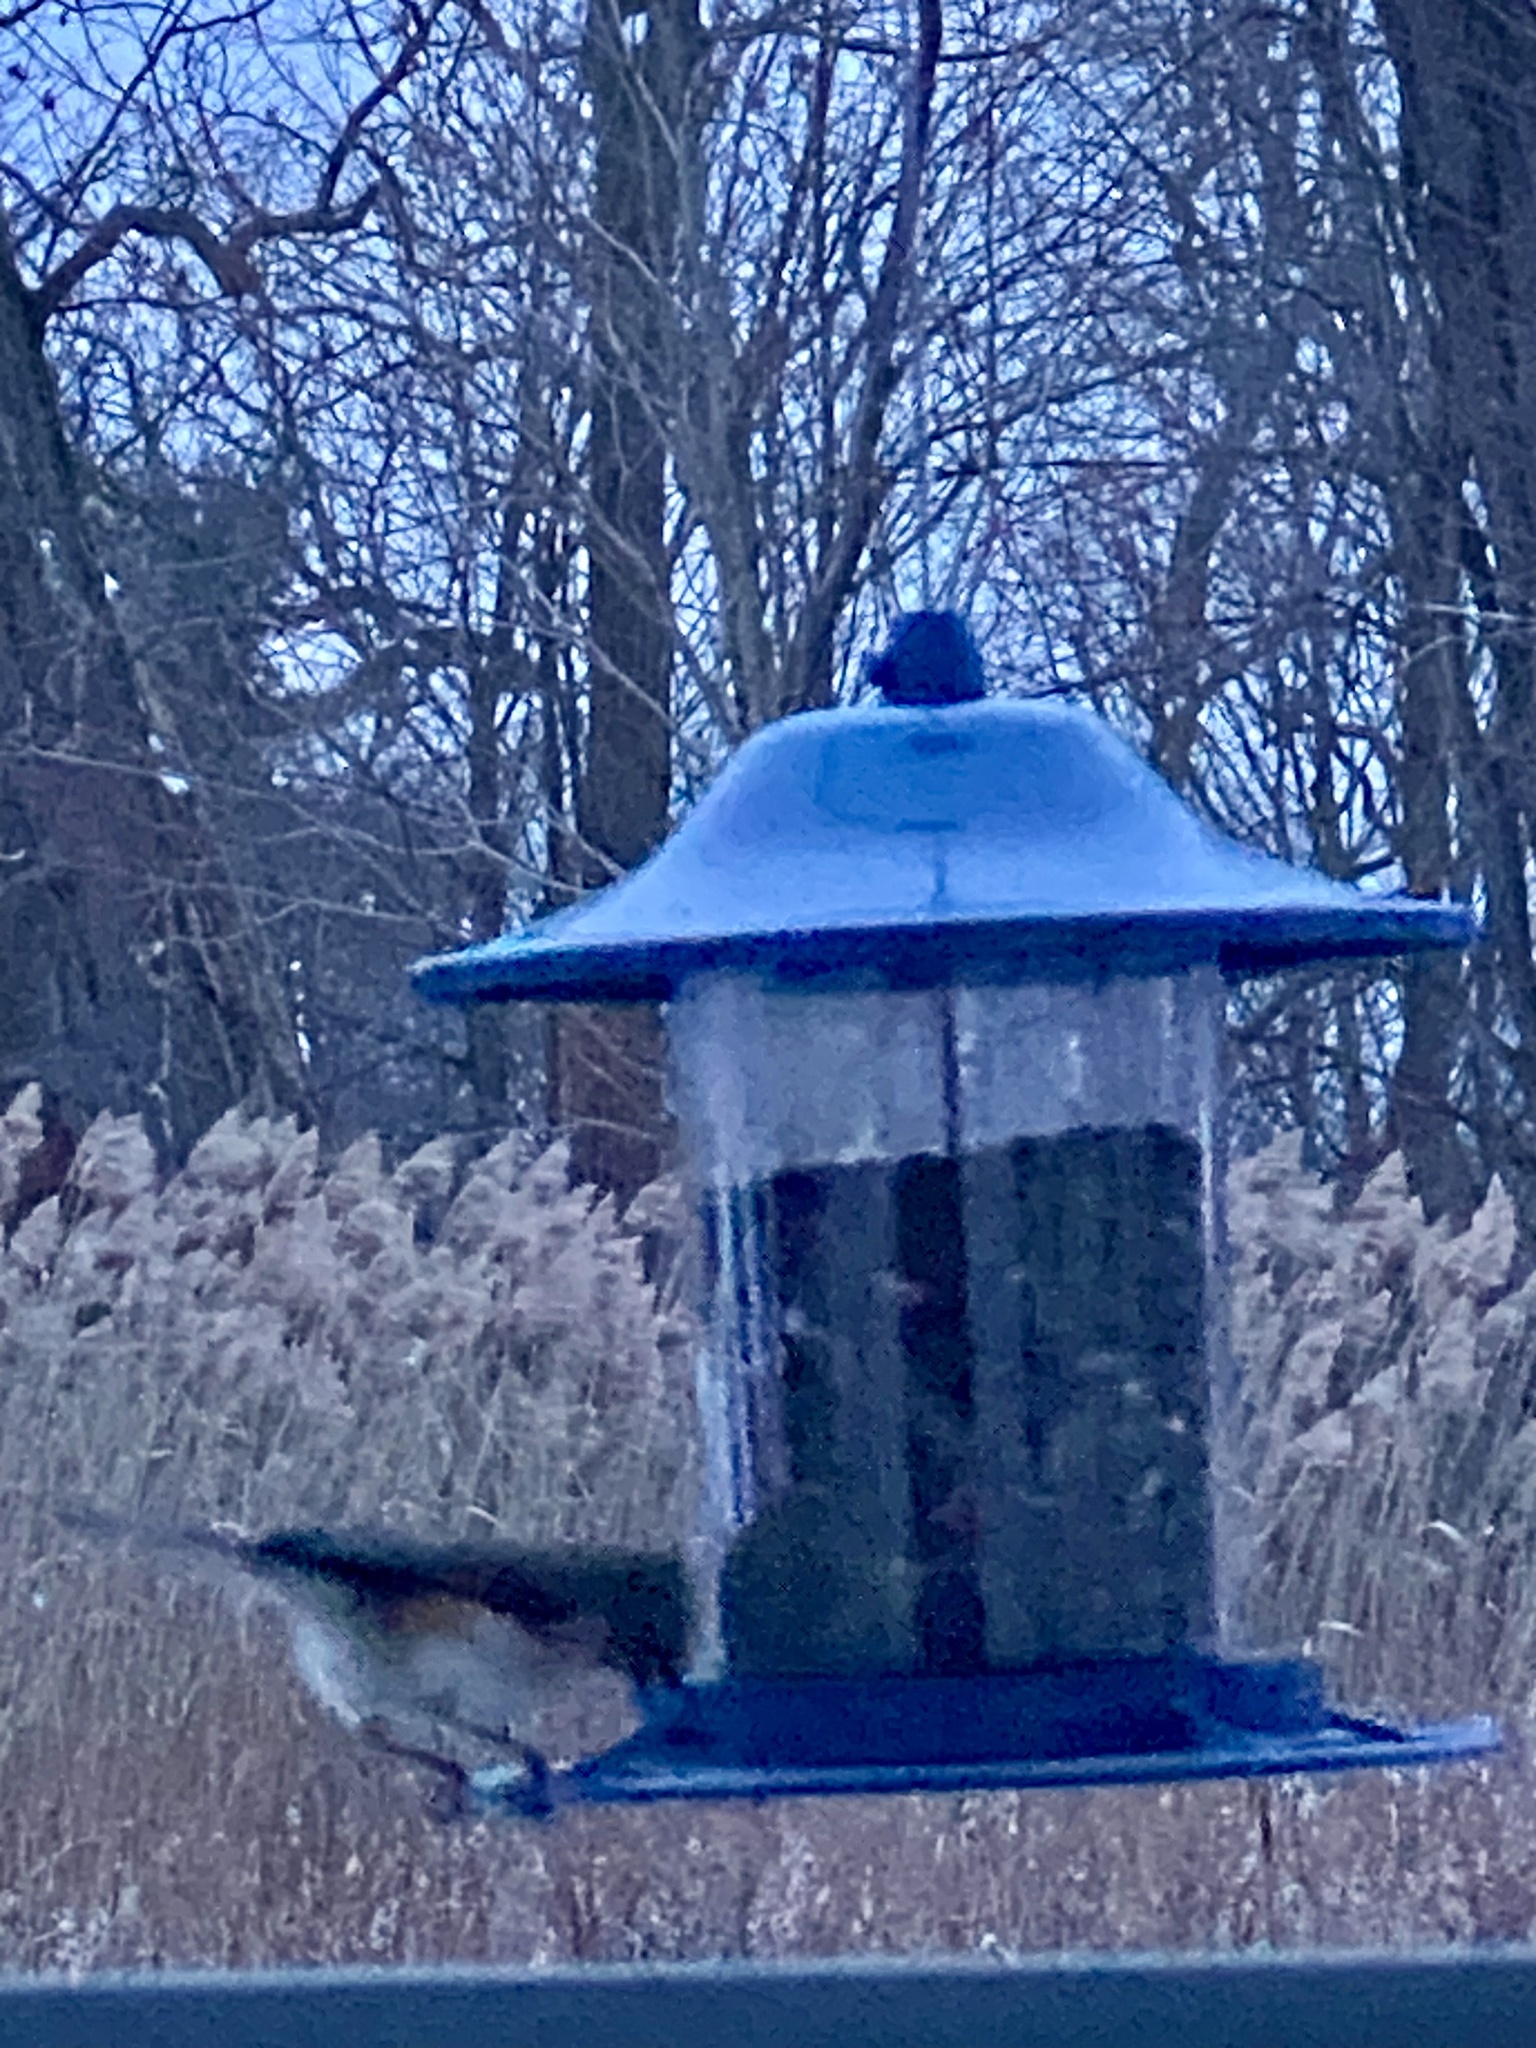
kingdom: Animalia
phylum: Chordata
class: Aves
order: Passeriformes
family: Paridae
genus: Baeolophus
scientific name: Baeolophus bicolor
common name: Tufted titmouse
